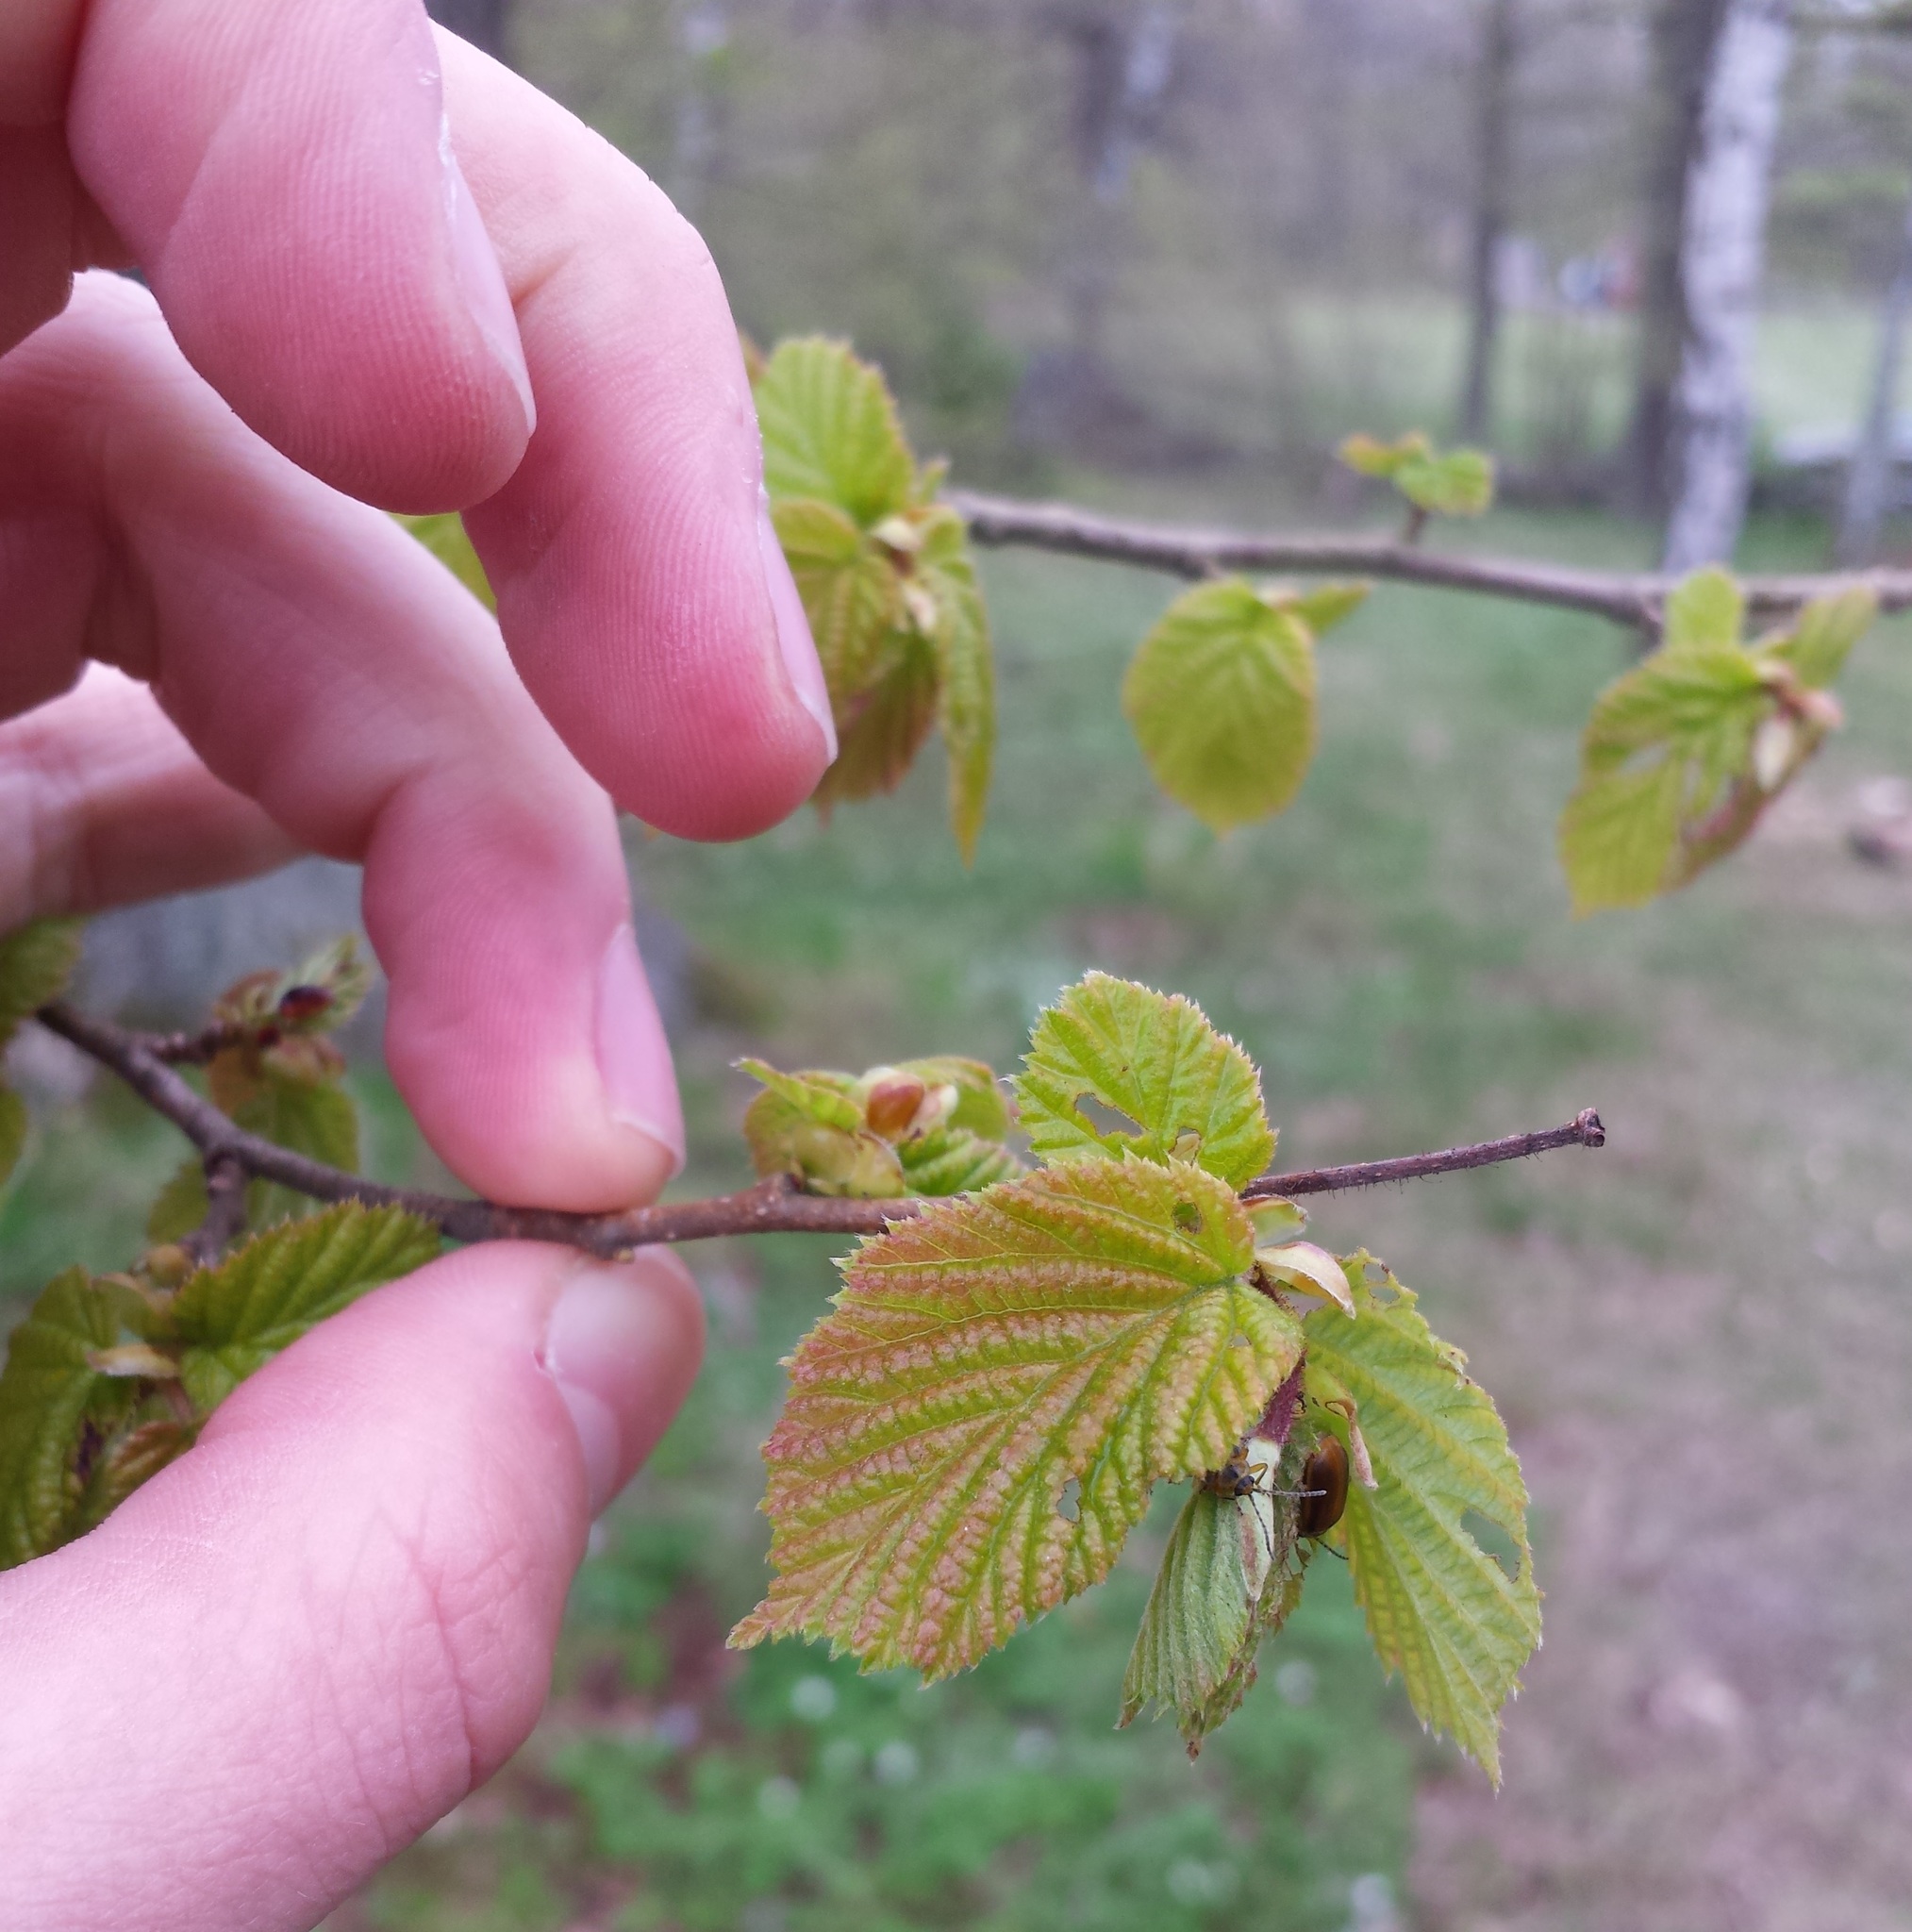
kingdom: Plantae
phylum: Tracheophyta
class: Magnoliopsida
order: Fagales
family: Betulaceae
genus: Corylus
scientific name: Corylus avellana
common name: European hazel
